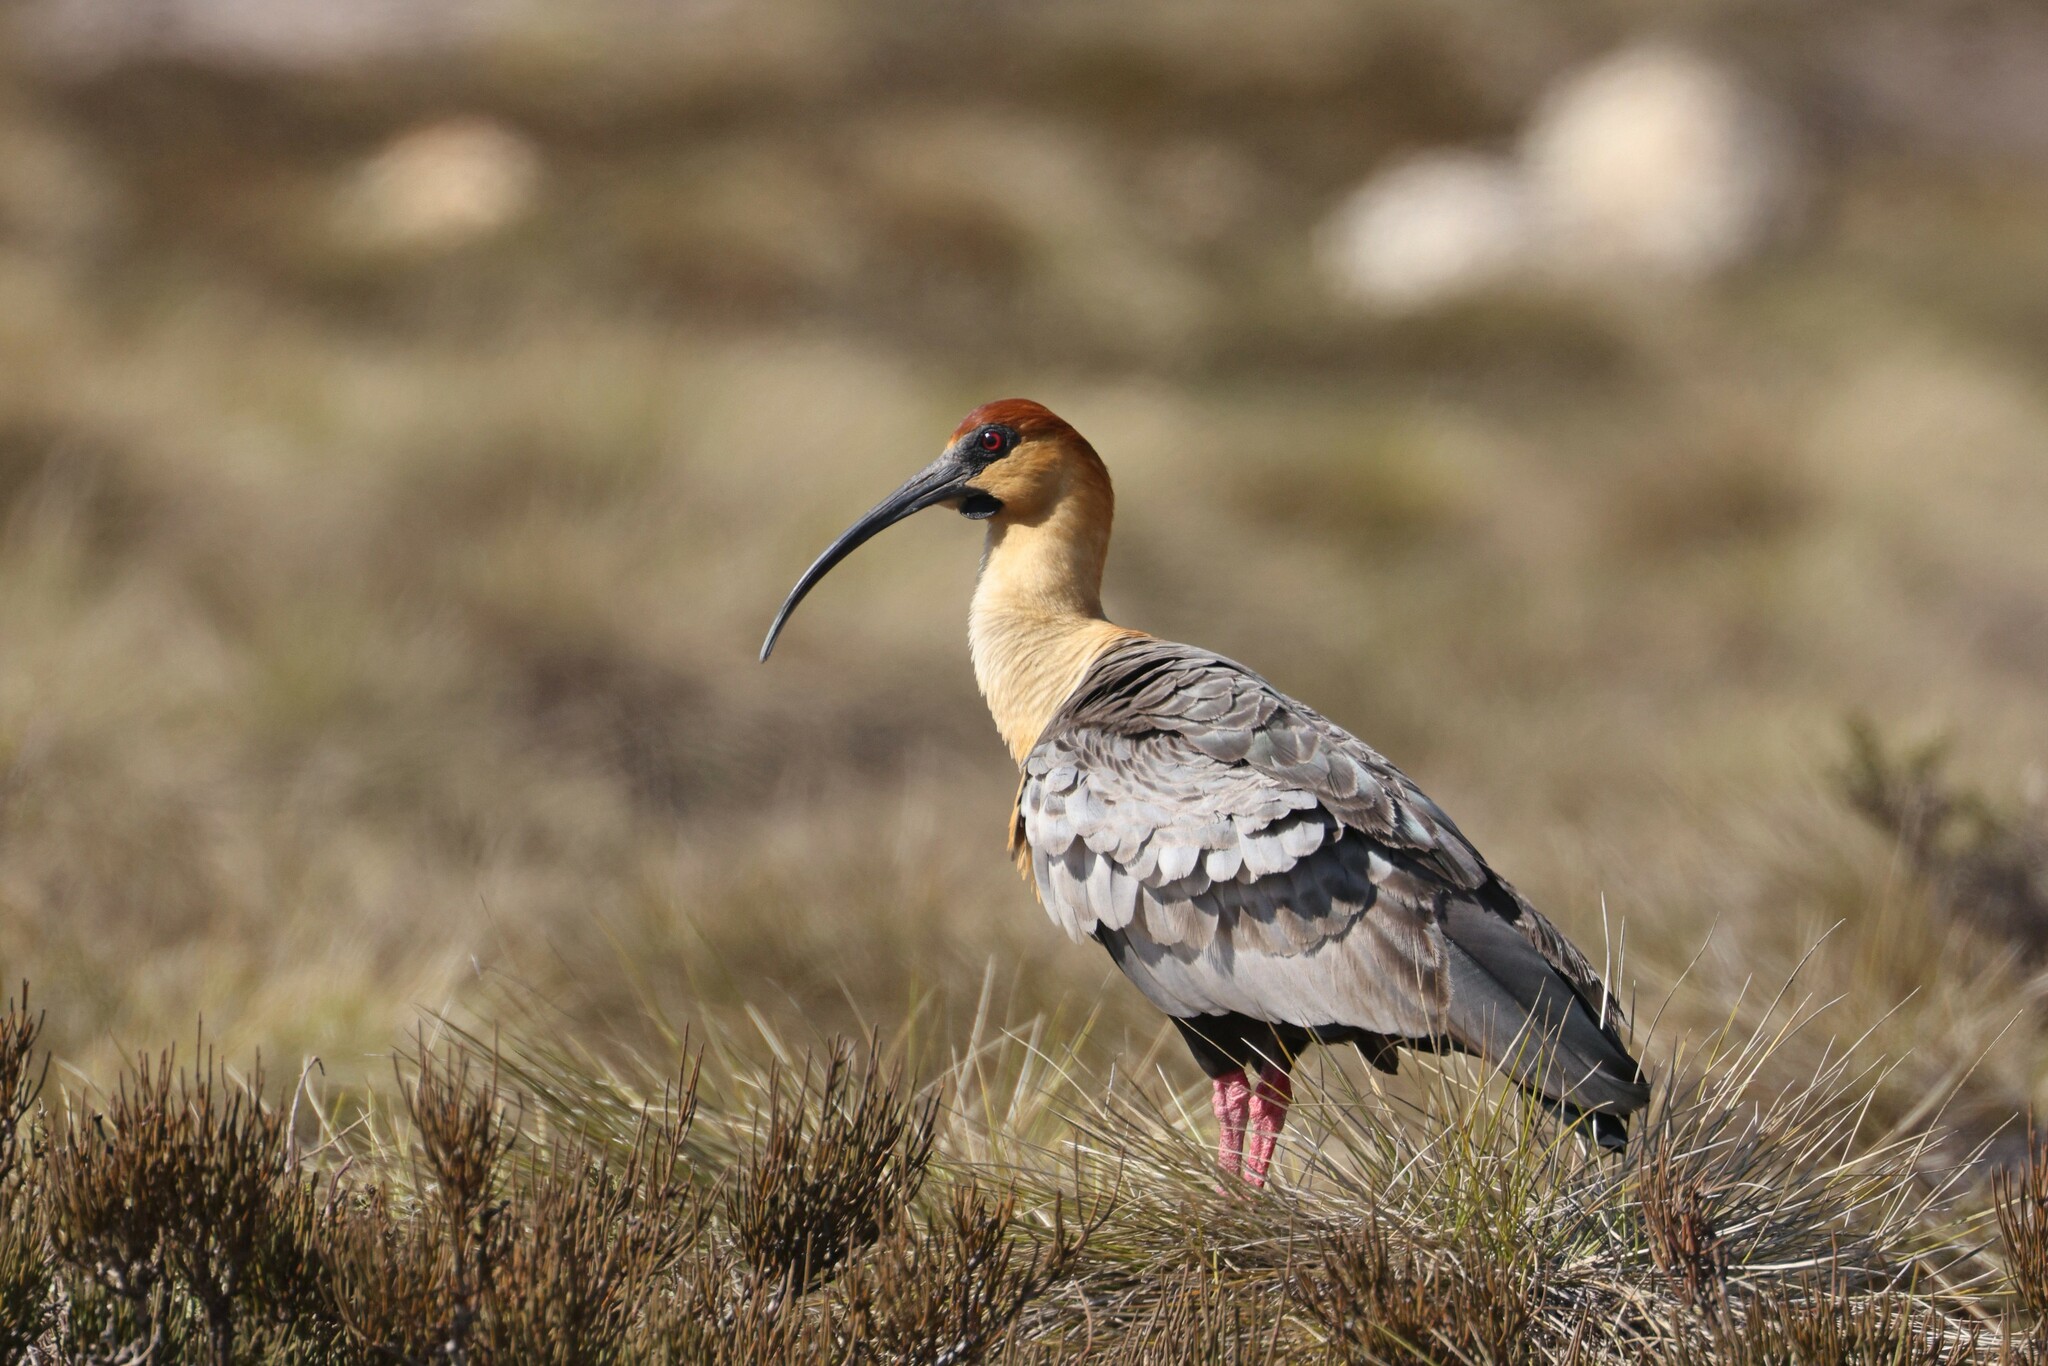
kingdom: Animalia
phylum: Chordata
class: Aves
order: Pelecaniformes
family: Threskiornithidae
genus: Theristicus
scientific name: Theristicus melanopis
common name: Black-faced ibis
